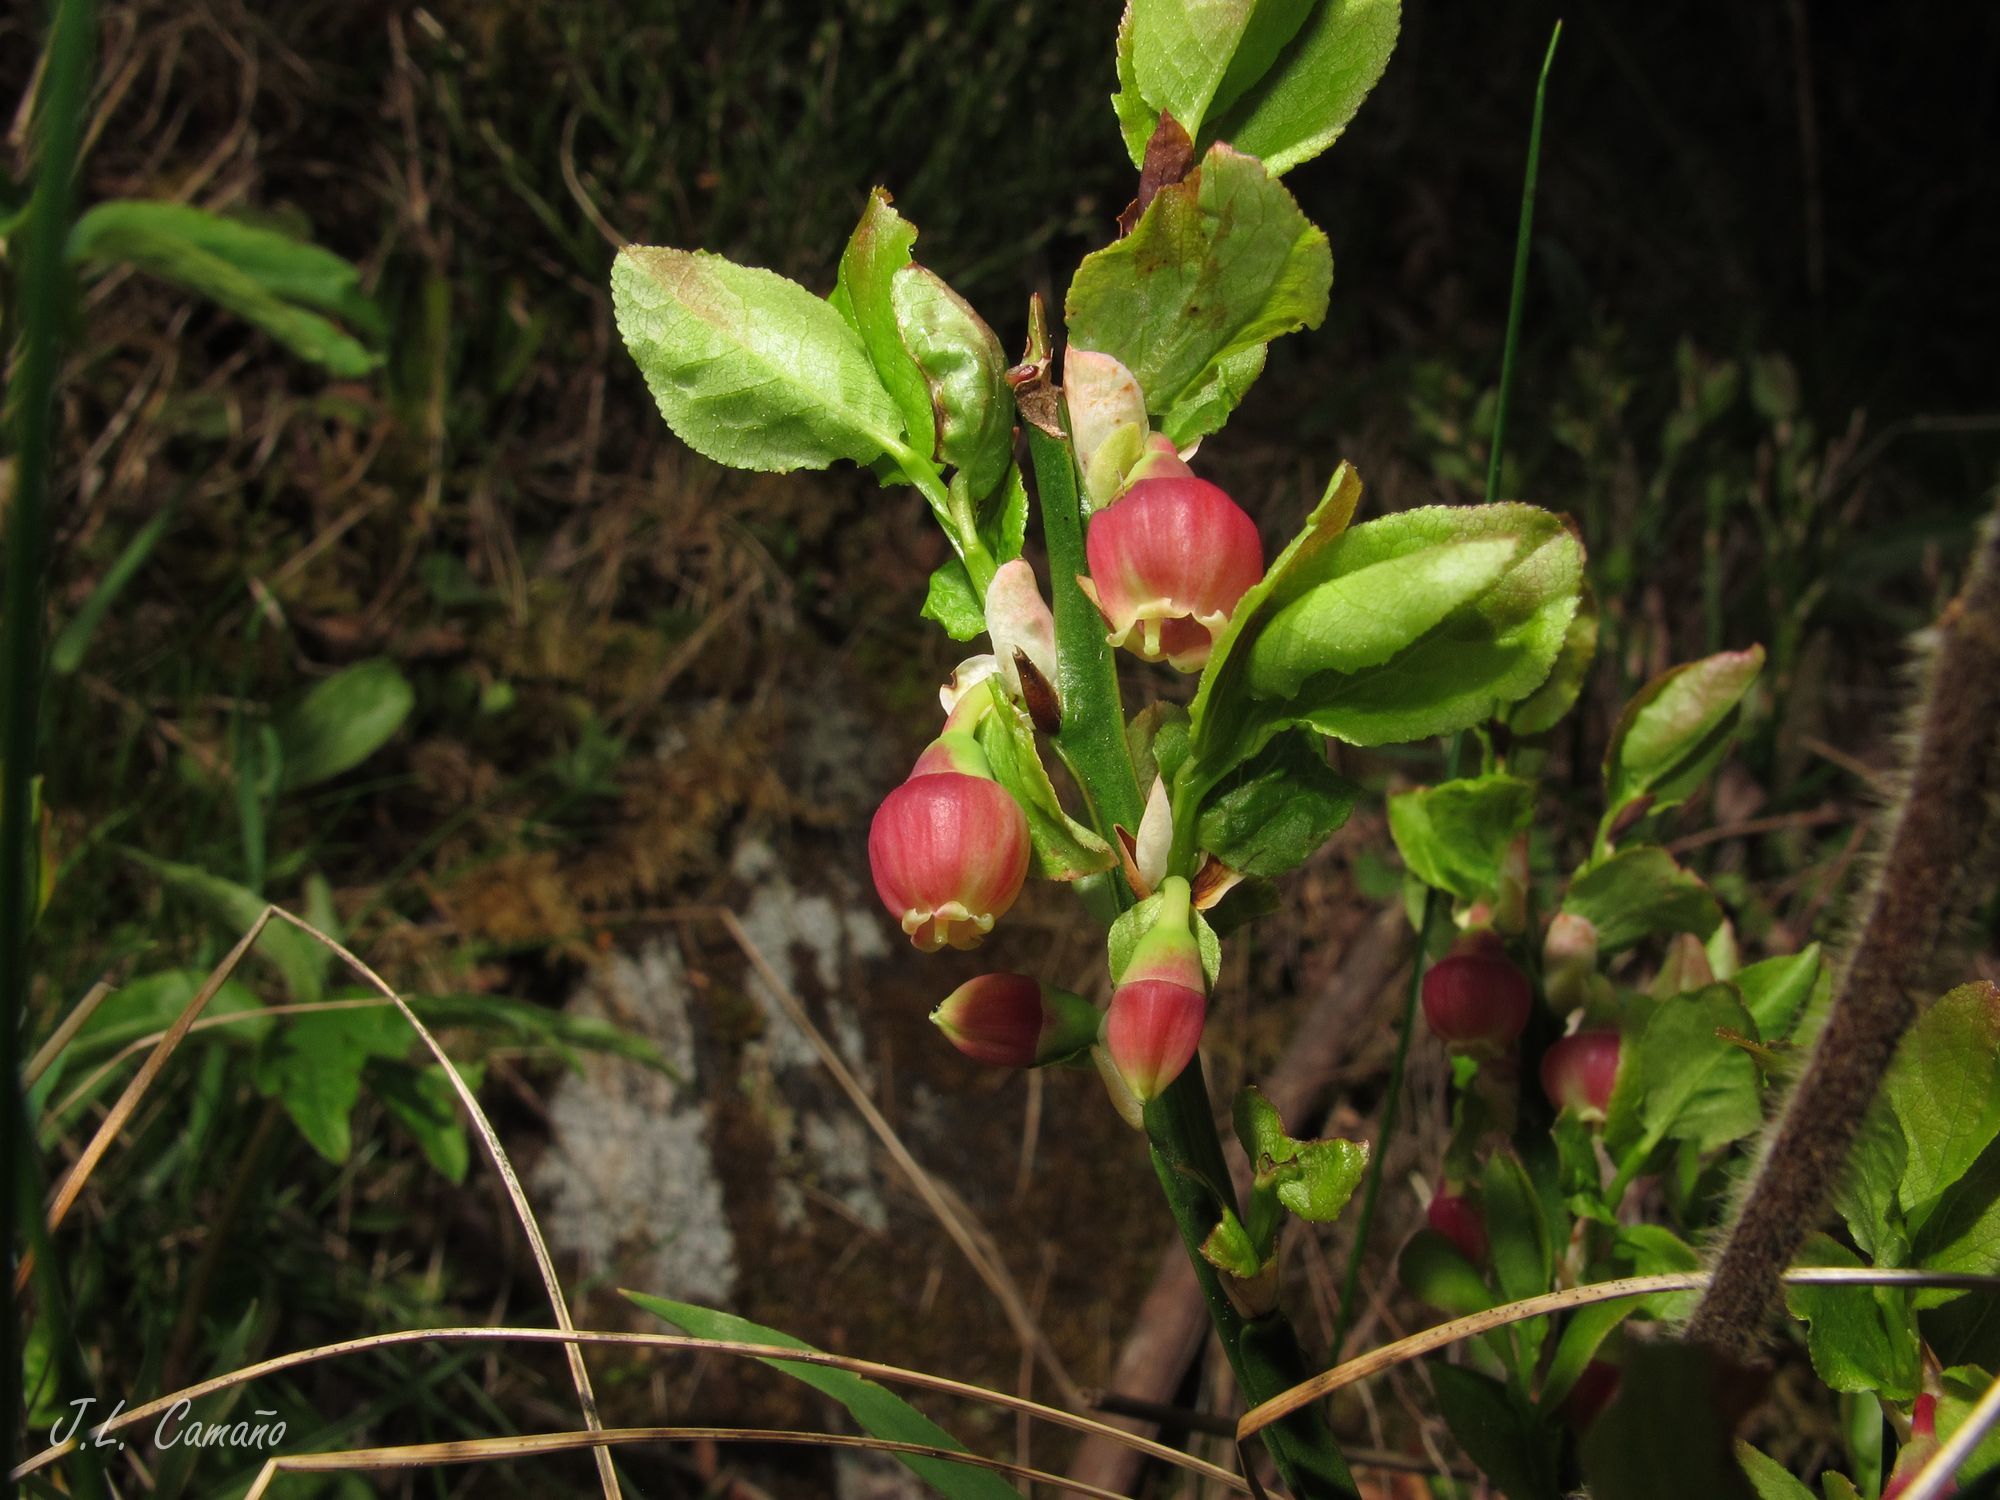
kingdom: Plantae
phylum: Tracheophyta
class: Magnoliopsida
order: Ericales
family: Ericaceae
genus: Vaccinium
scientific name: Vaccinium myrtillus
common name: Bilberry
